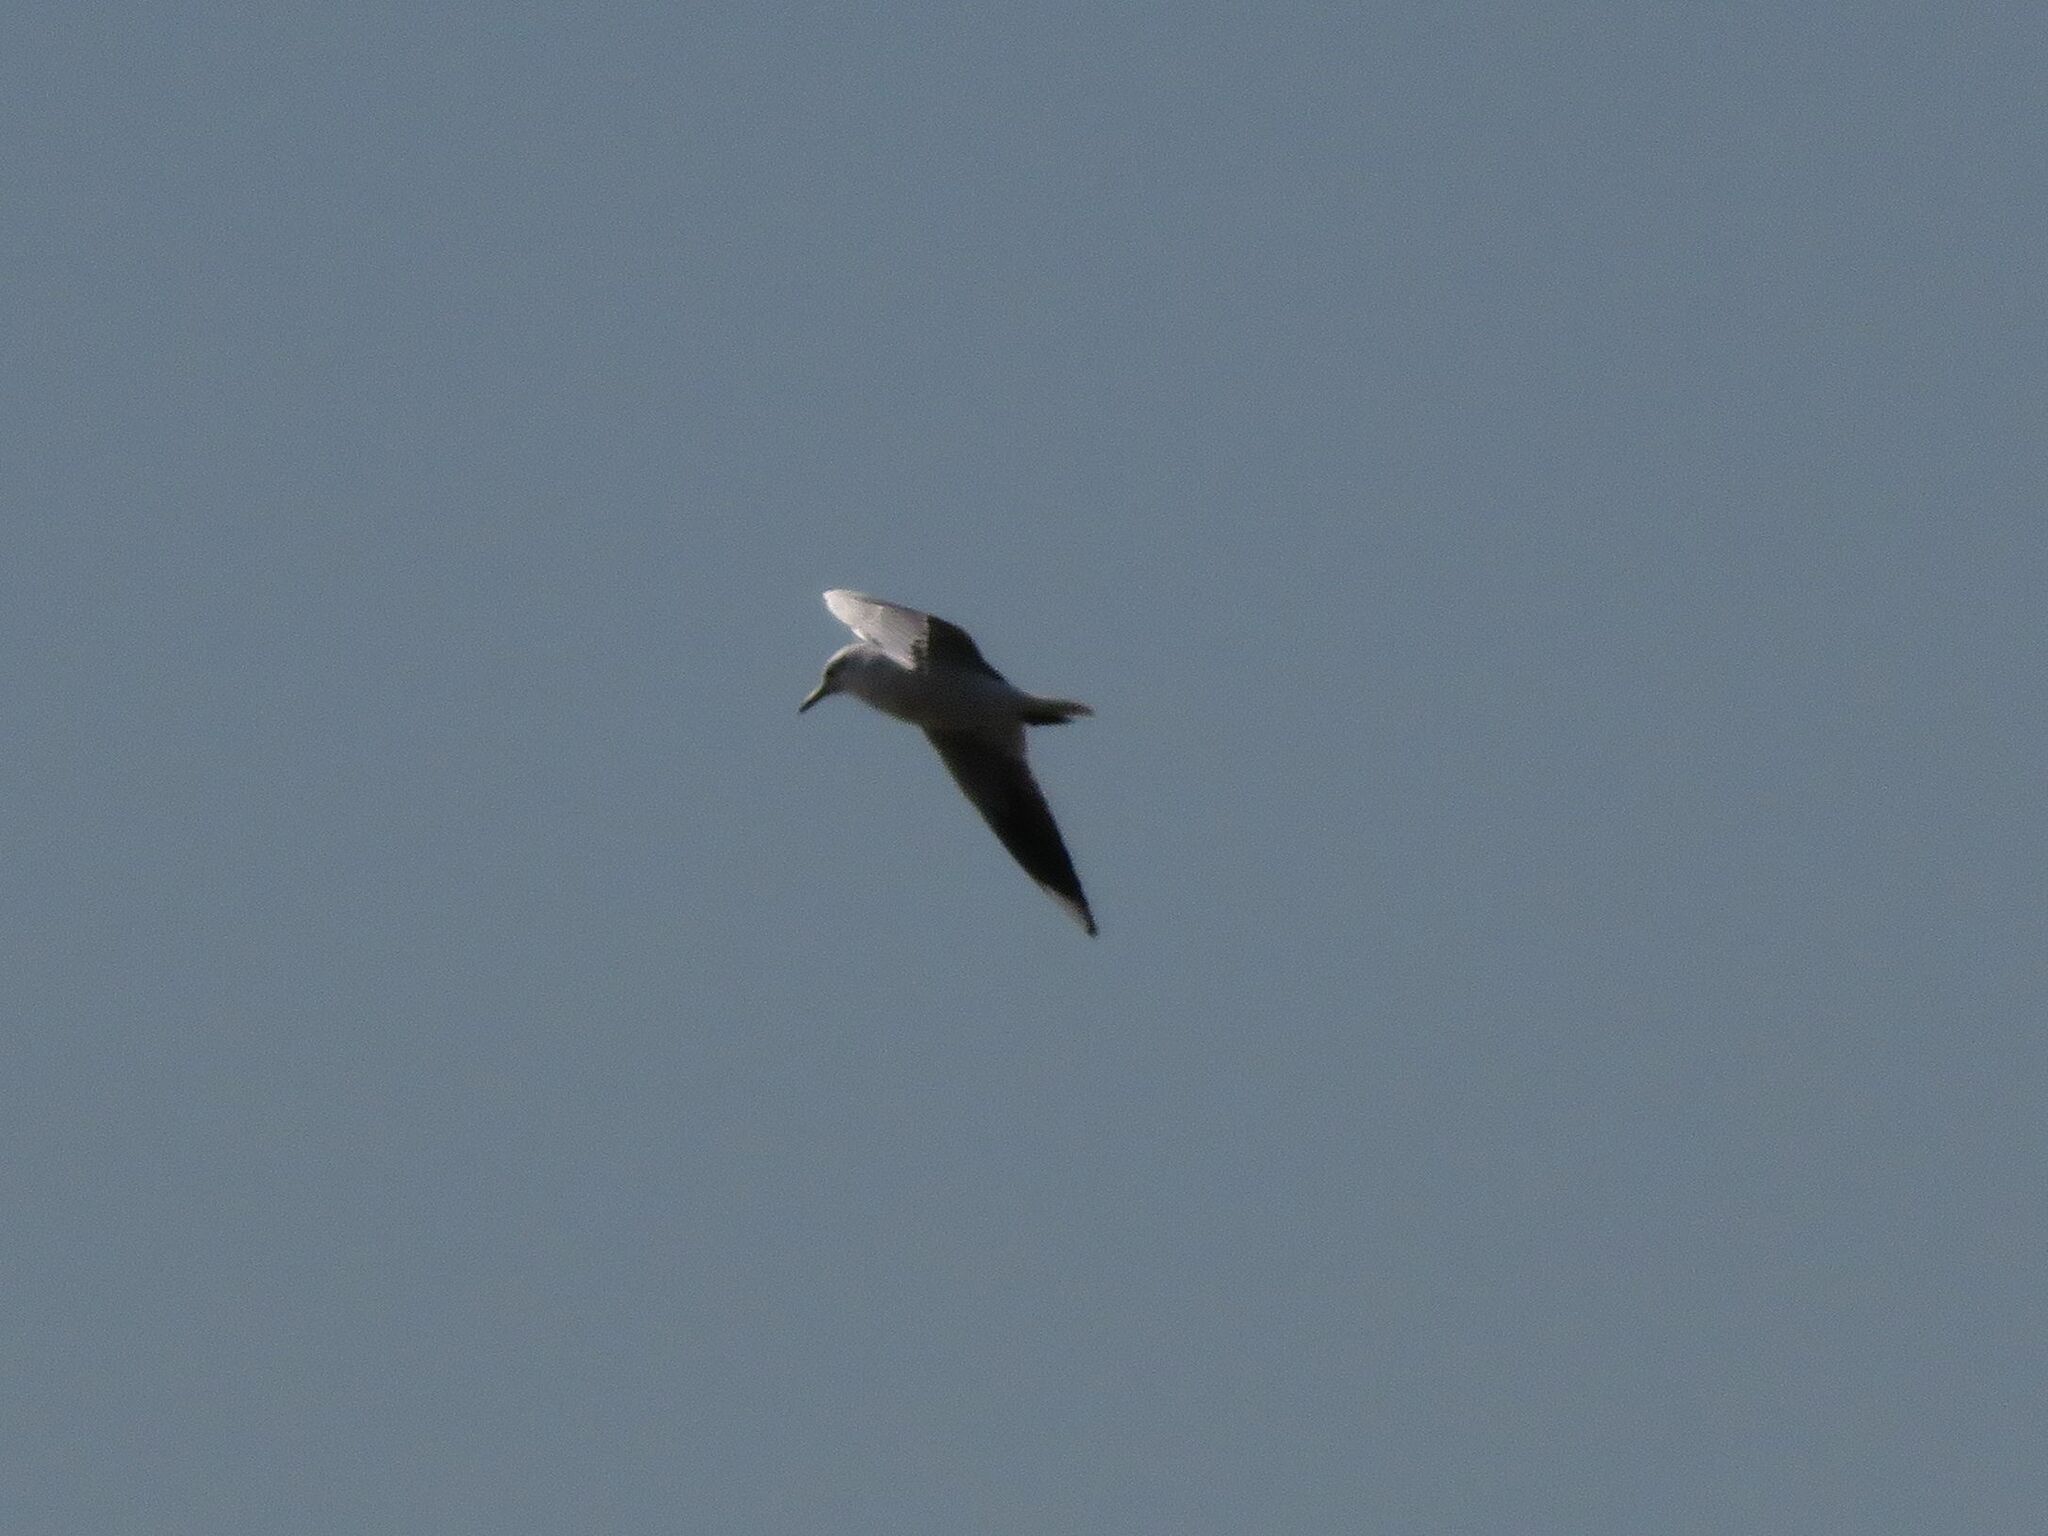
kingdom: Animalia
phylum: Chordata
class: Aves
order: Charadriiformes
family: Laridae
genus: Chroicocephalus
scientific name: Chroicocephalus maculipennis
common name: Brown-hooded gull
